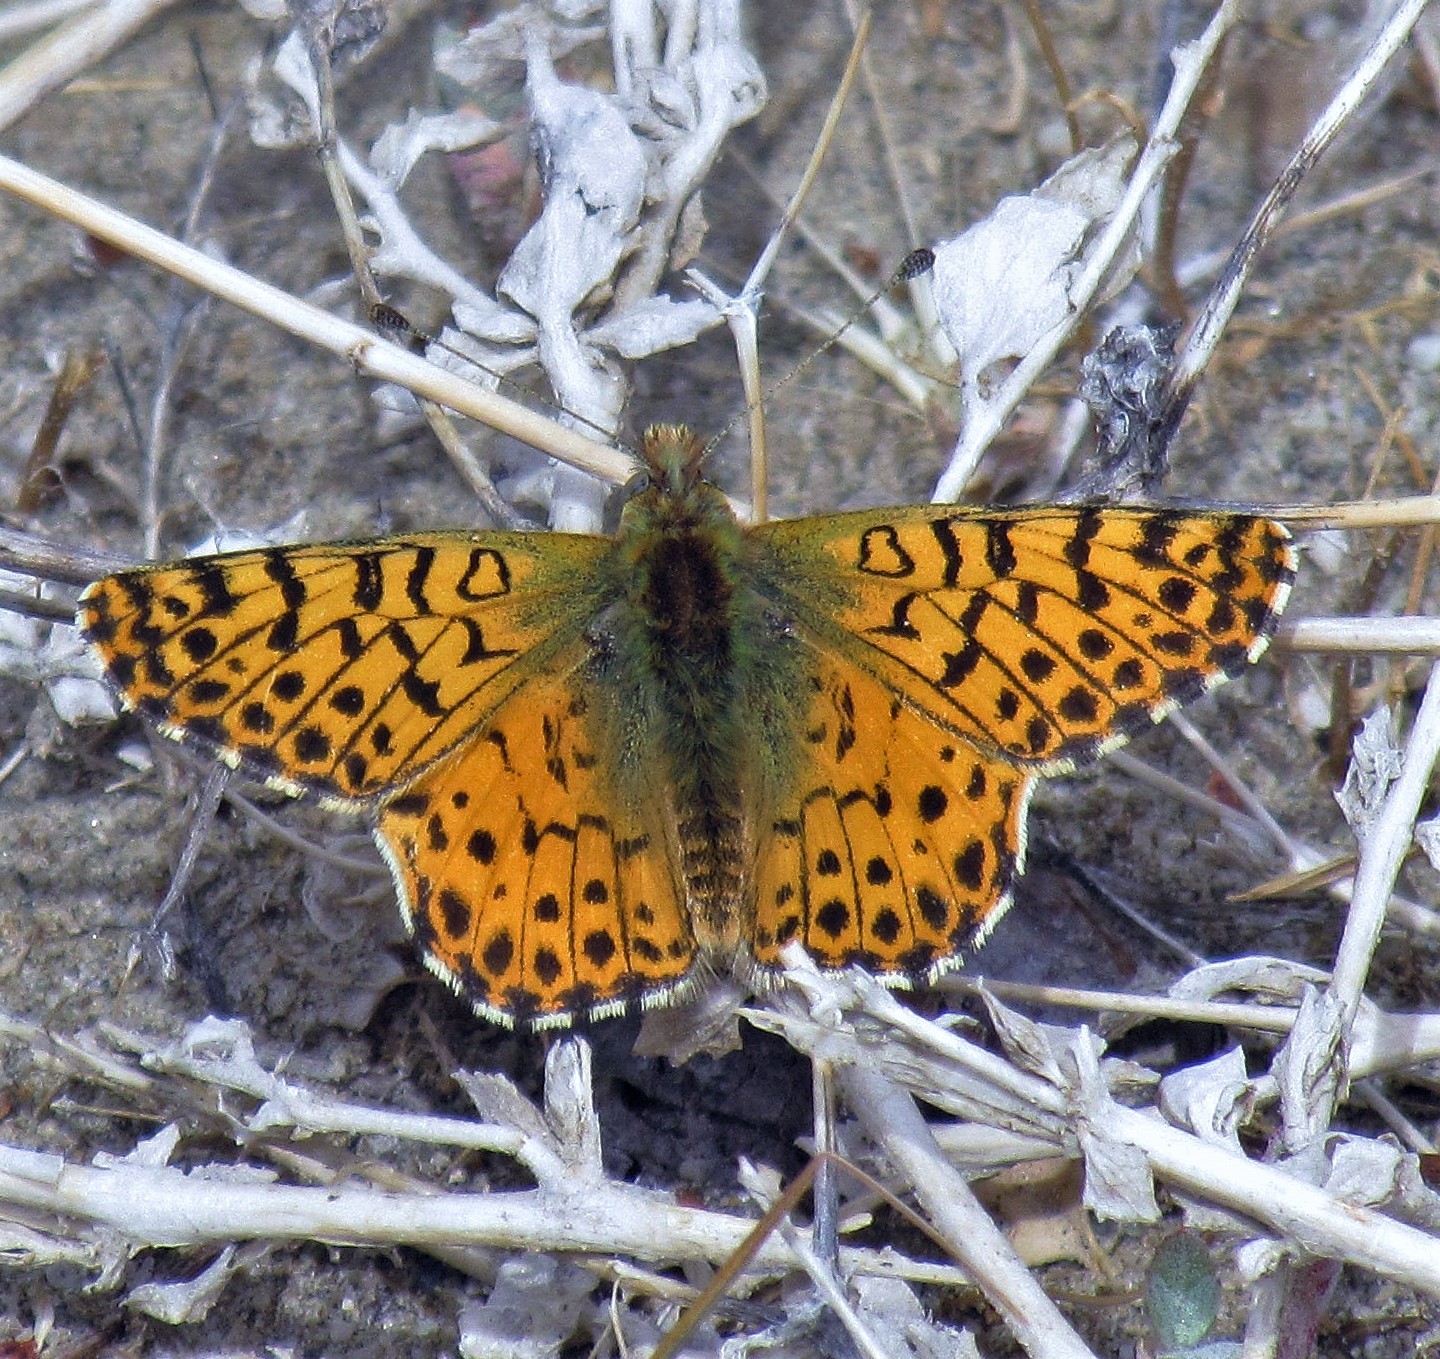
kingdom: Animalia
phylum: Arthropoda
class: Insecta
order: Lepidoptera
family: Nymphalidae
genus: Issoria
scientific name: Issoria Yramea lathonoides
